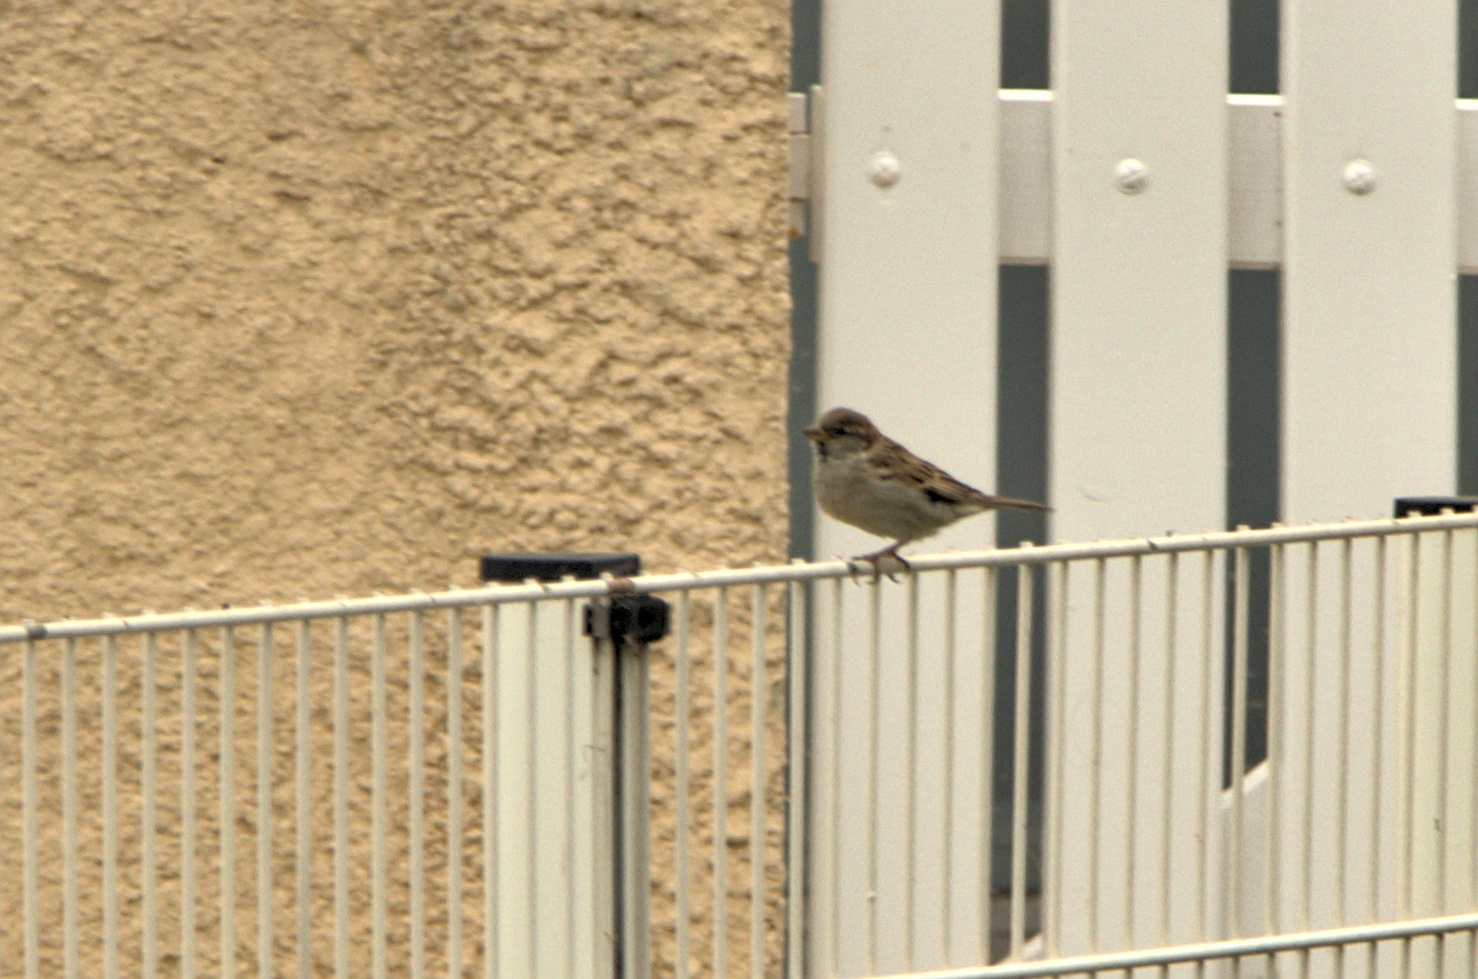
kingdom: Animalia
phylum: Chordata
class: Aves
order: Passeriformes
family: Passeridae
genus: Passer
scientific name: Passer domesticus
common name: House sparrow
